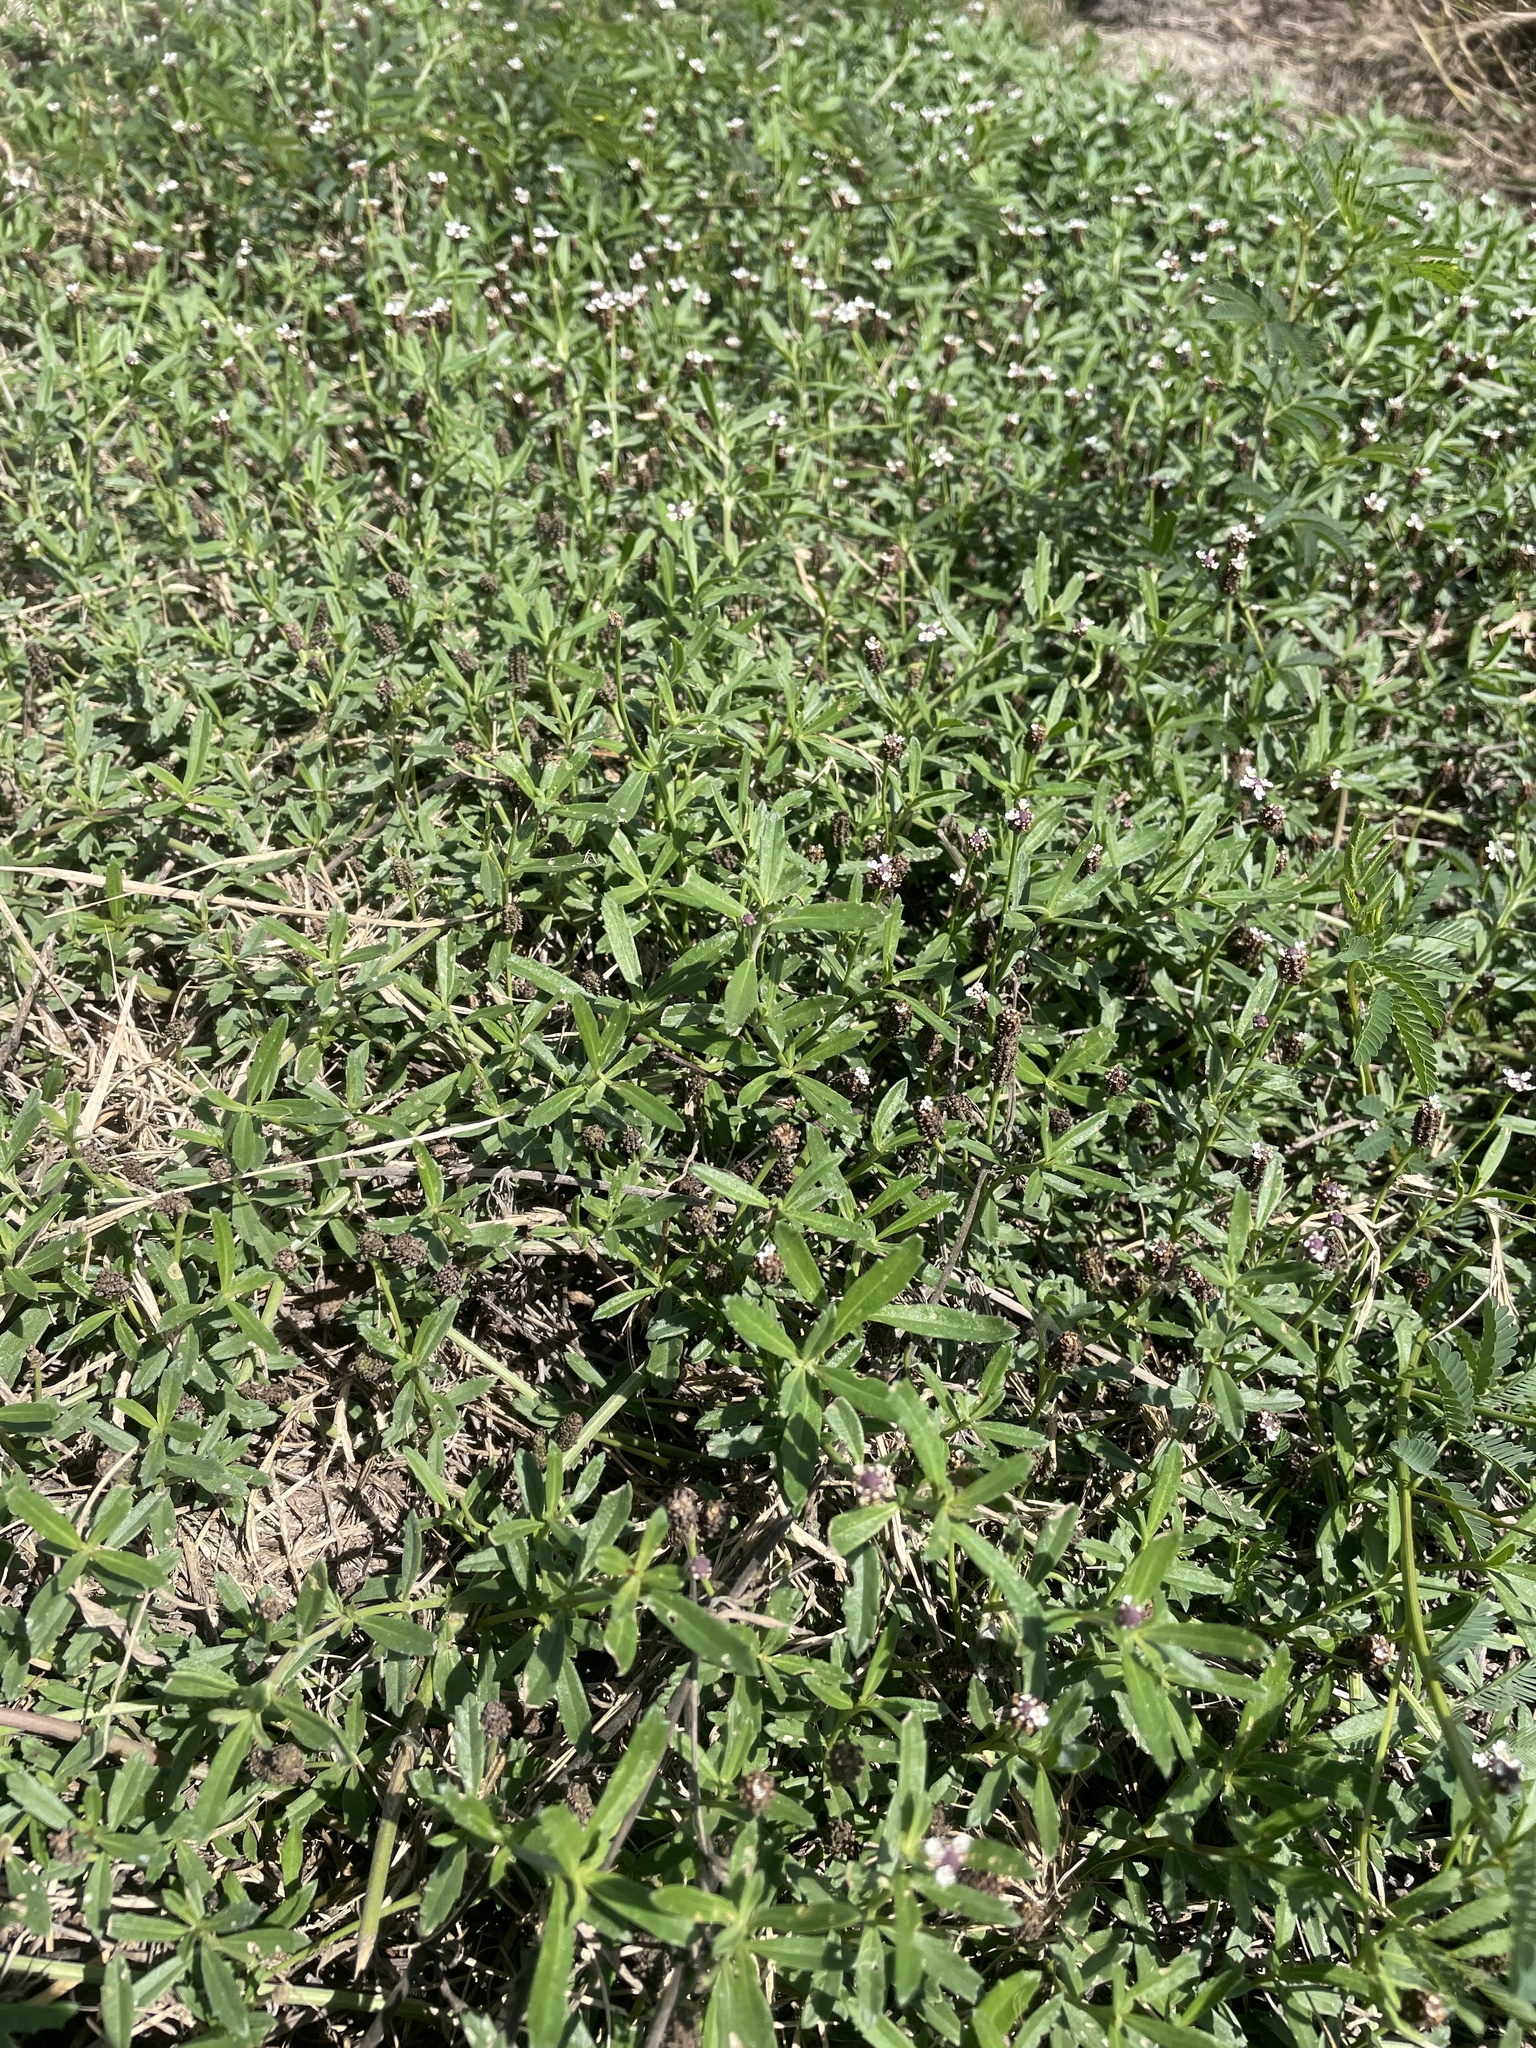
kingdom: Plantae
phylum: Tracheophyta
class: Magnoliopsida
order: Lamiales
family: Verbenaceae
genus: Phyla
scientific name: Phyla nodiflora
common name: Frogfruit
